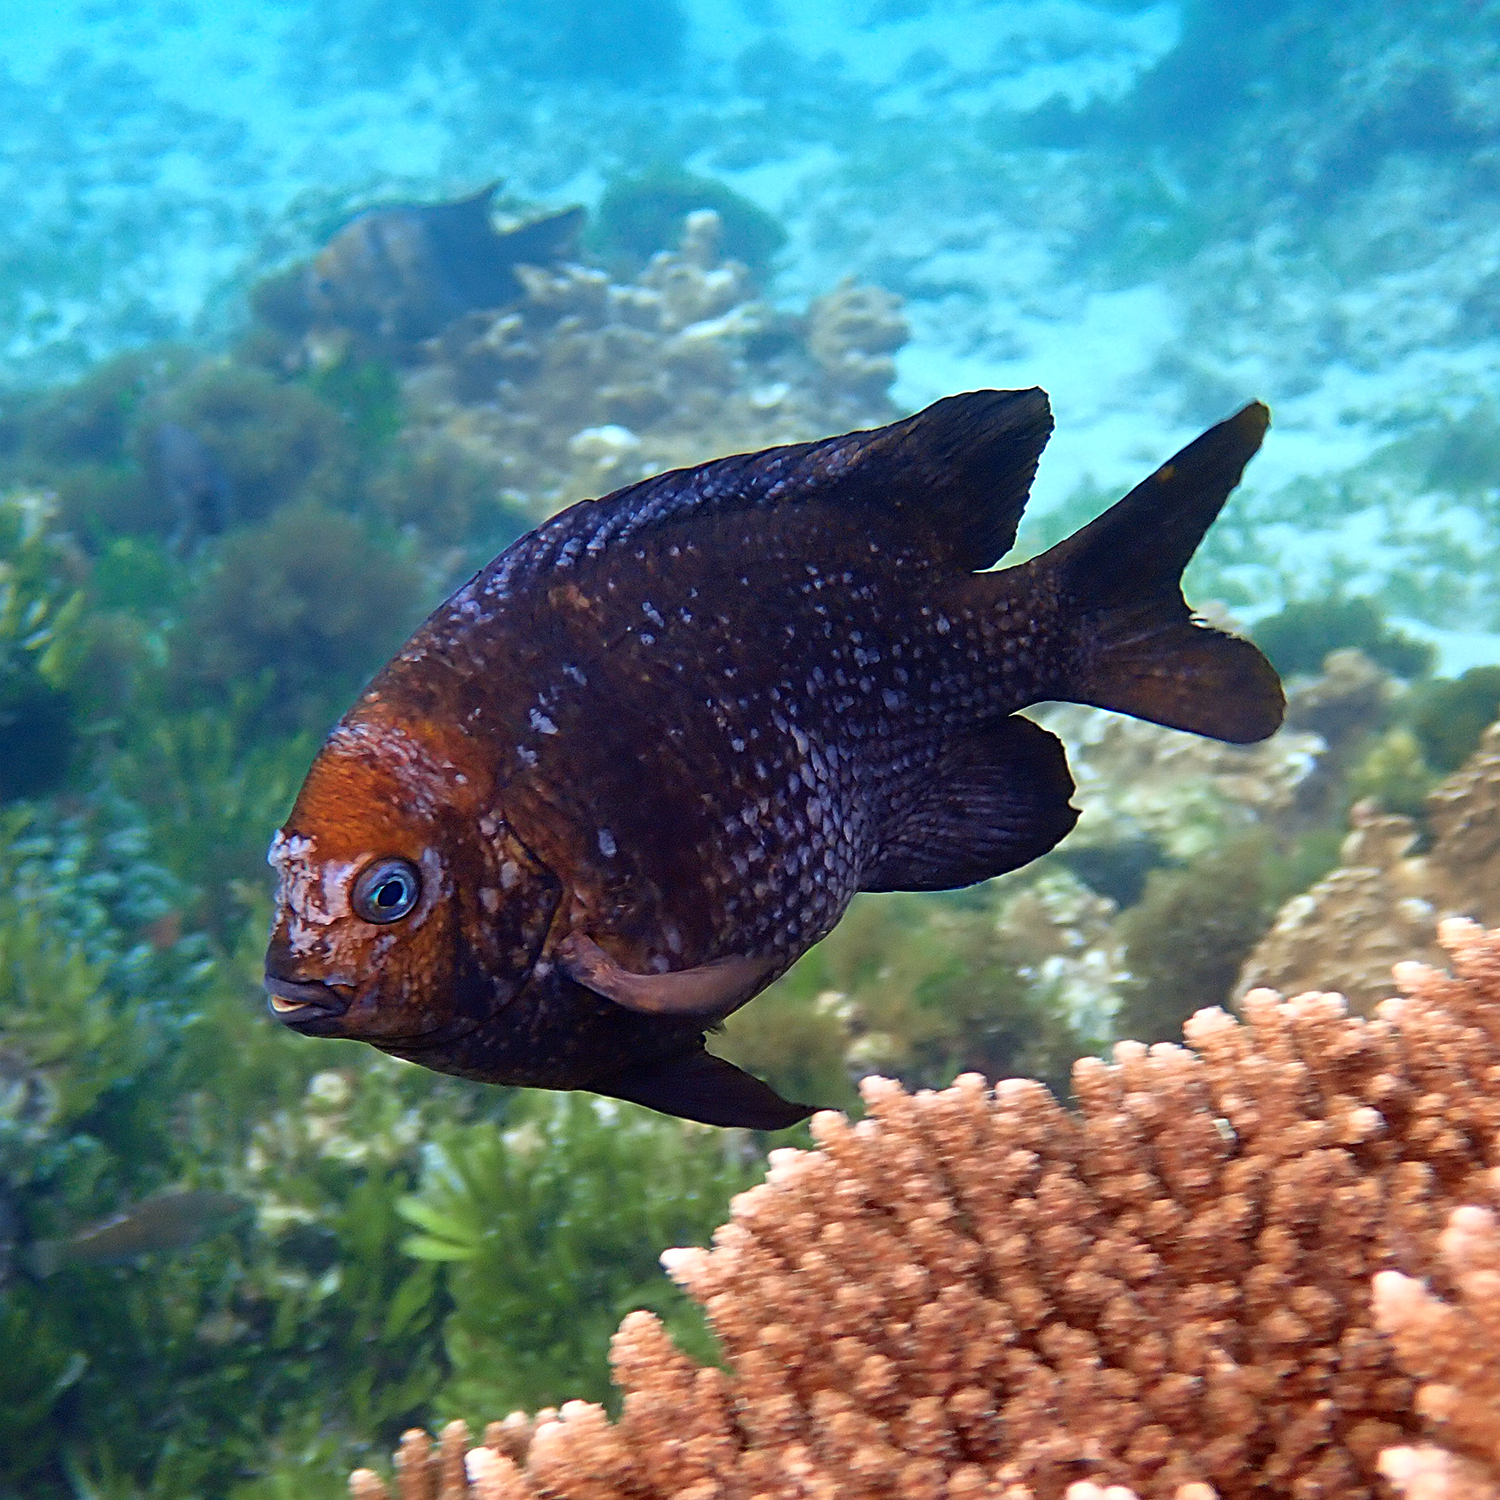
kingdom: Animalia
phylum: Chordata
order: Perciformes
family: Pomacentridae
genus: Parma
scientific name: Parma polylepis
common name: Banded parma
